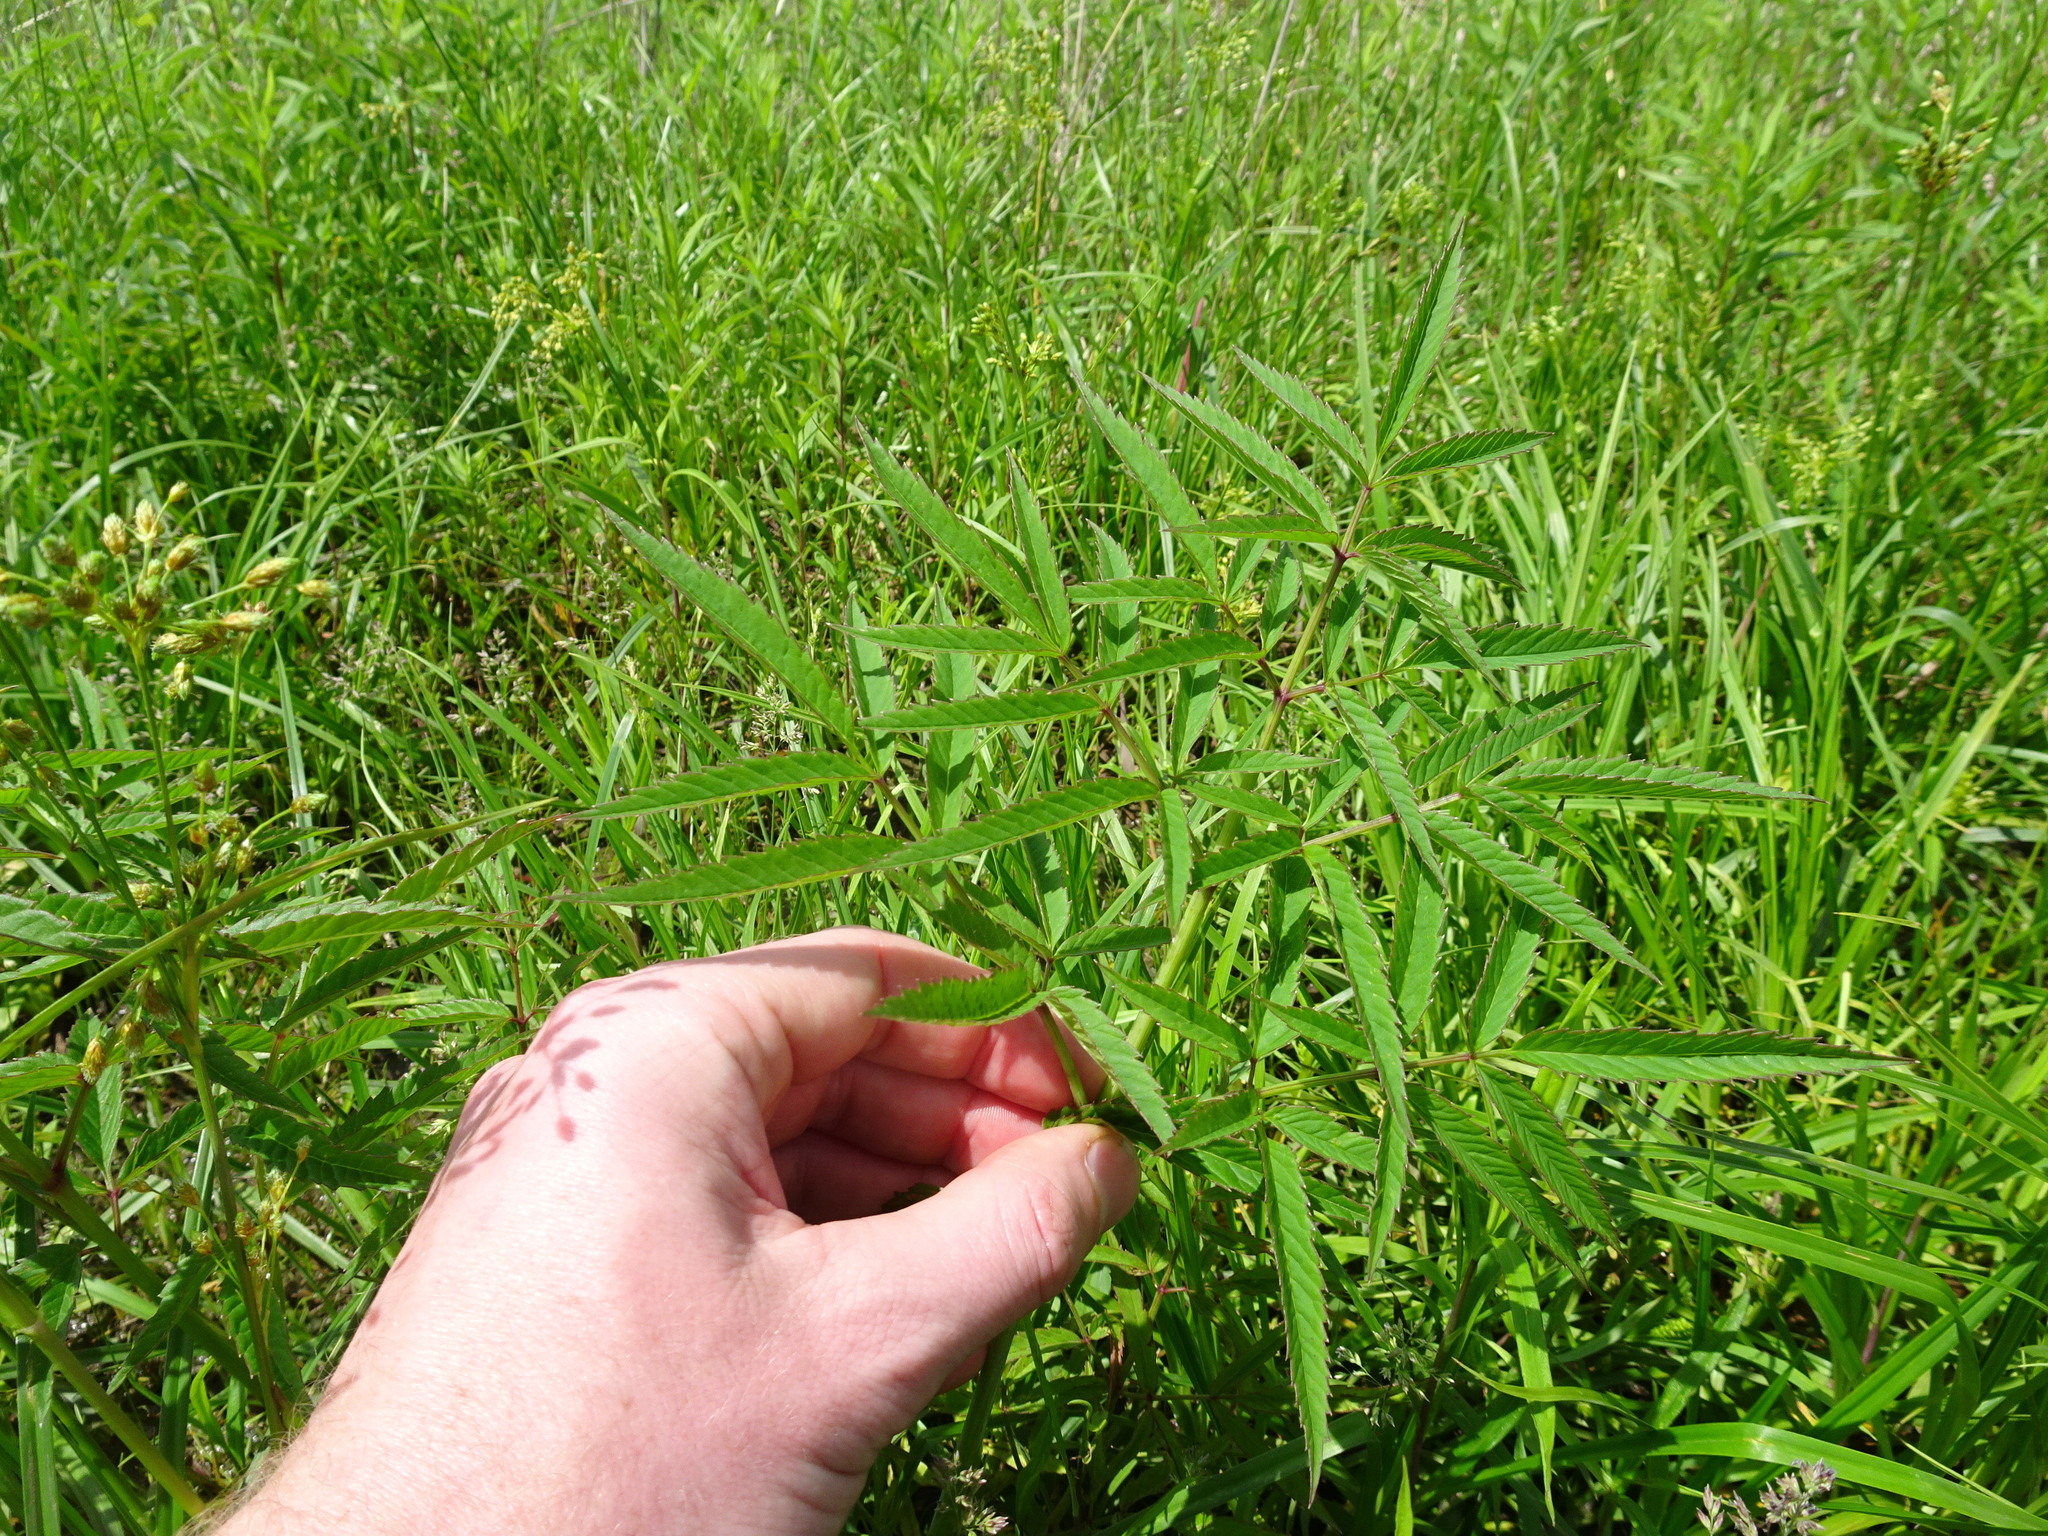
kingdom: Plantae
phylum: Tracheophyta
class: Magnoliopsida
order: Apiales
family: Apiaceae
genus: Cicuta
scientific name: Cicuta maculata
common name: Spotted cowbane
